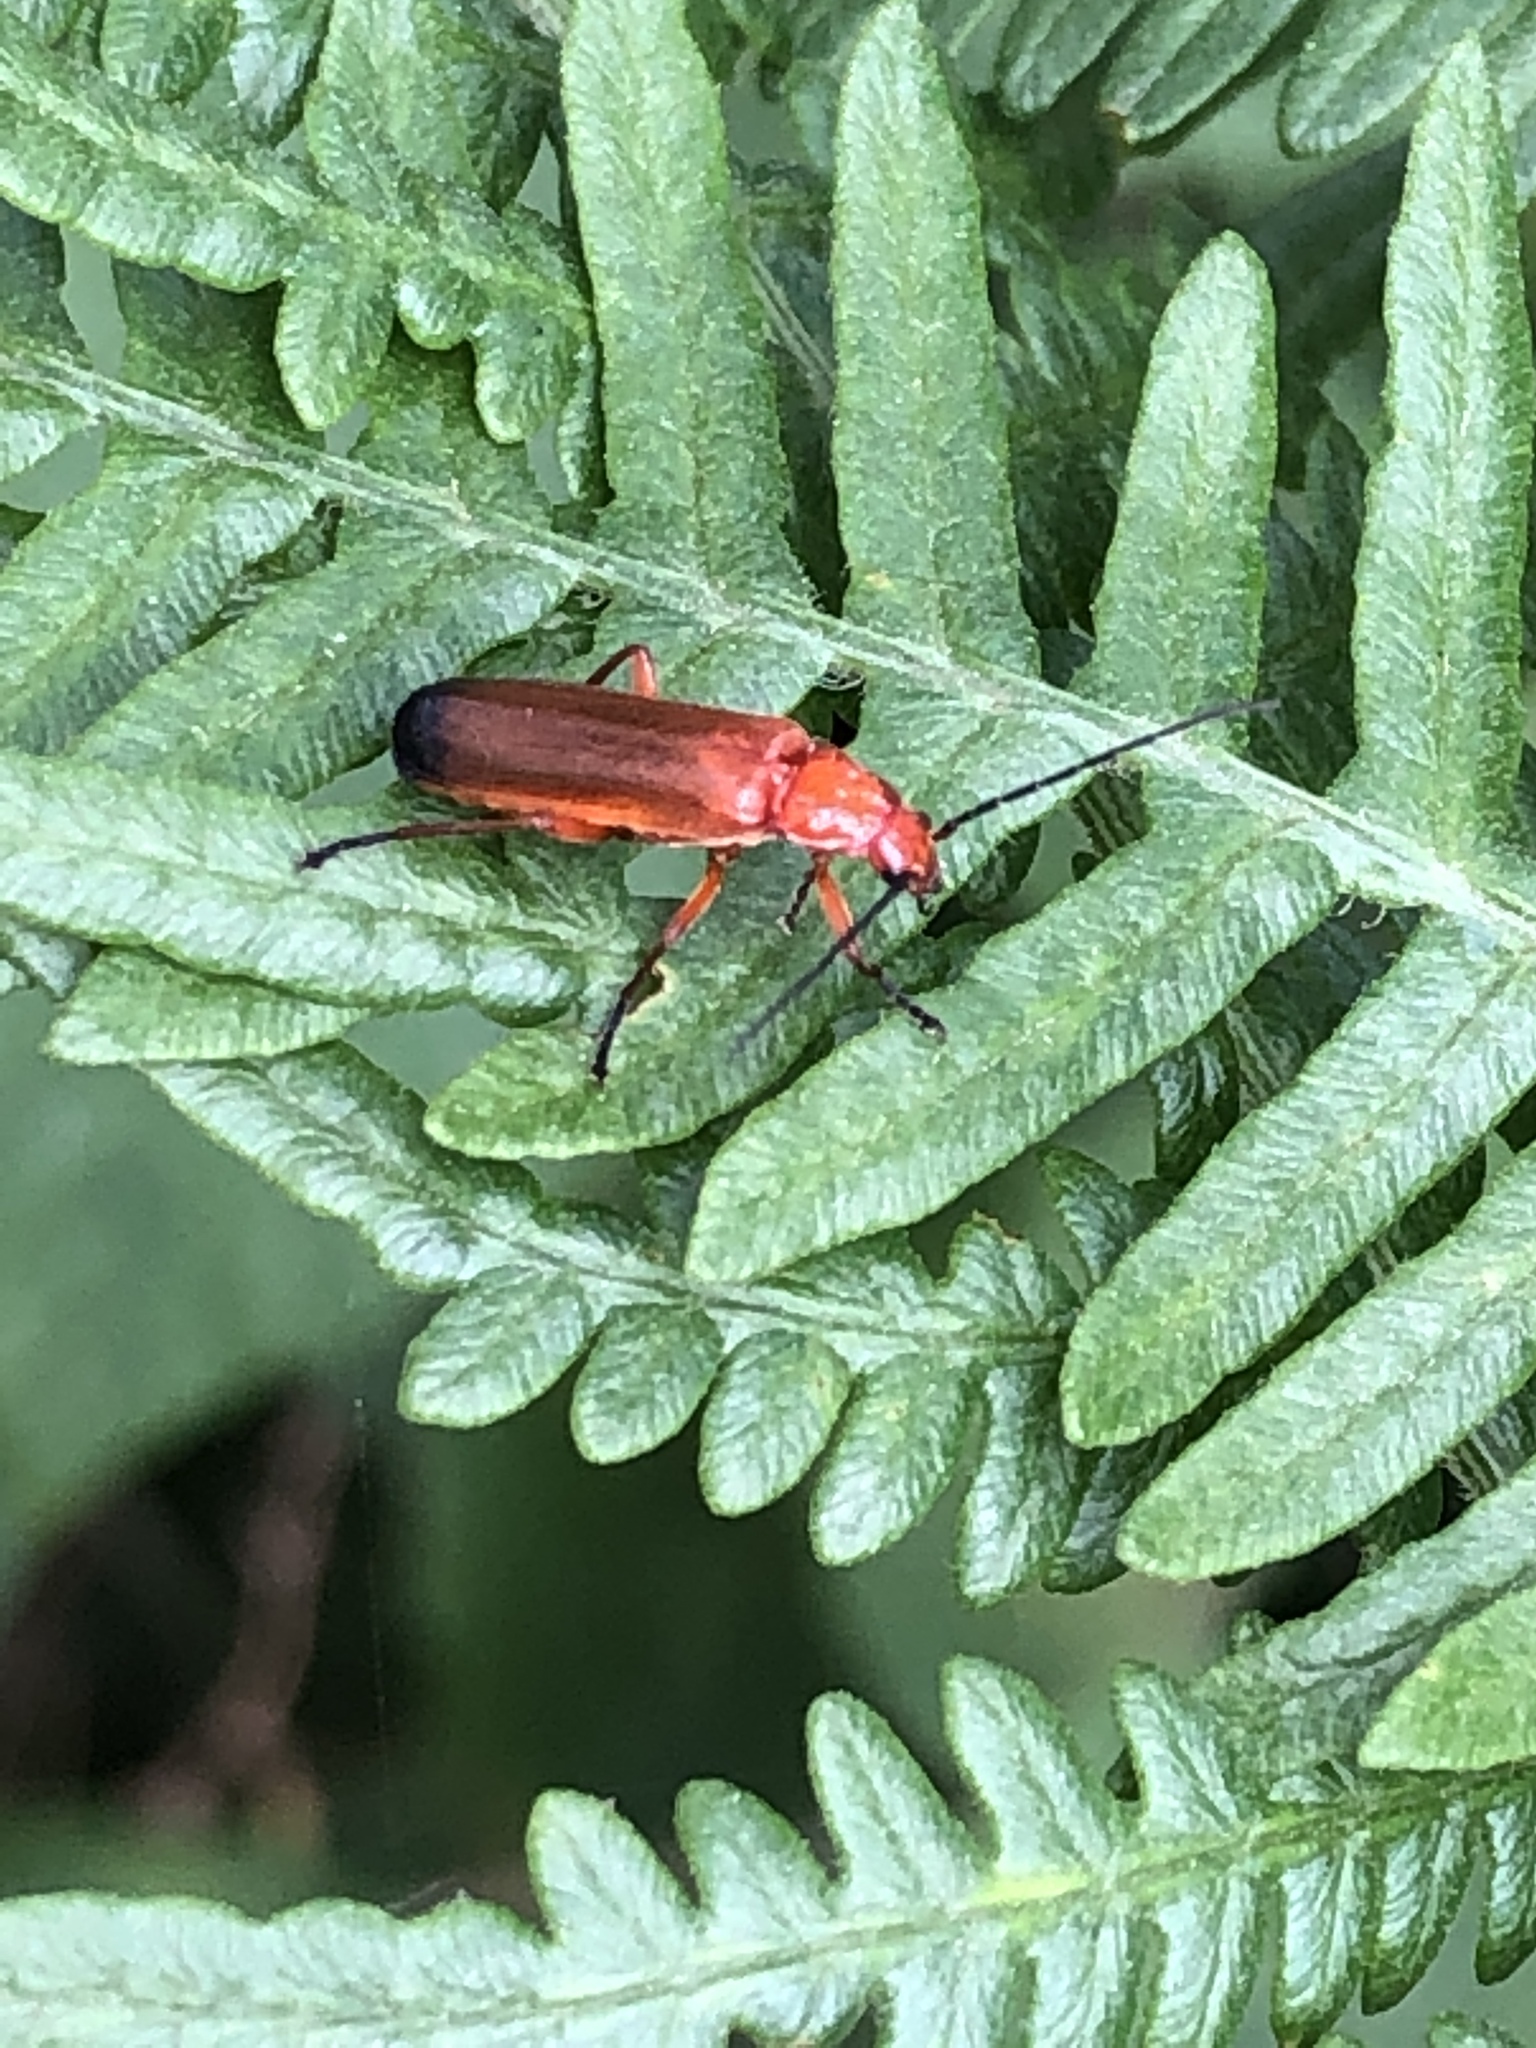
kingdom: Animalia
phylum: Arthropoda
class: Insecta
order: Coleoptera
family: Cantharidae
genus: Rhagonycha
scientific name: Rhagonycha fulva
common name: Common red soldier beetle
